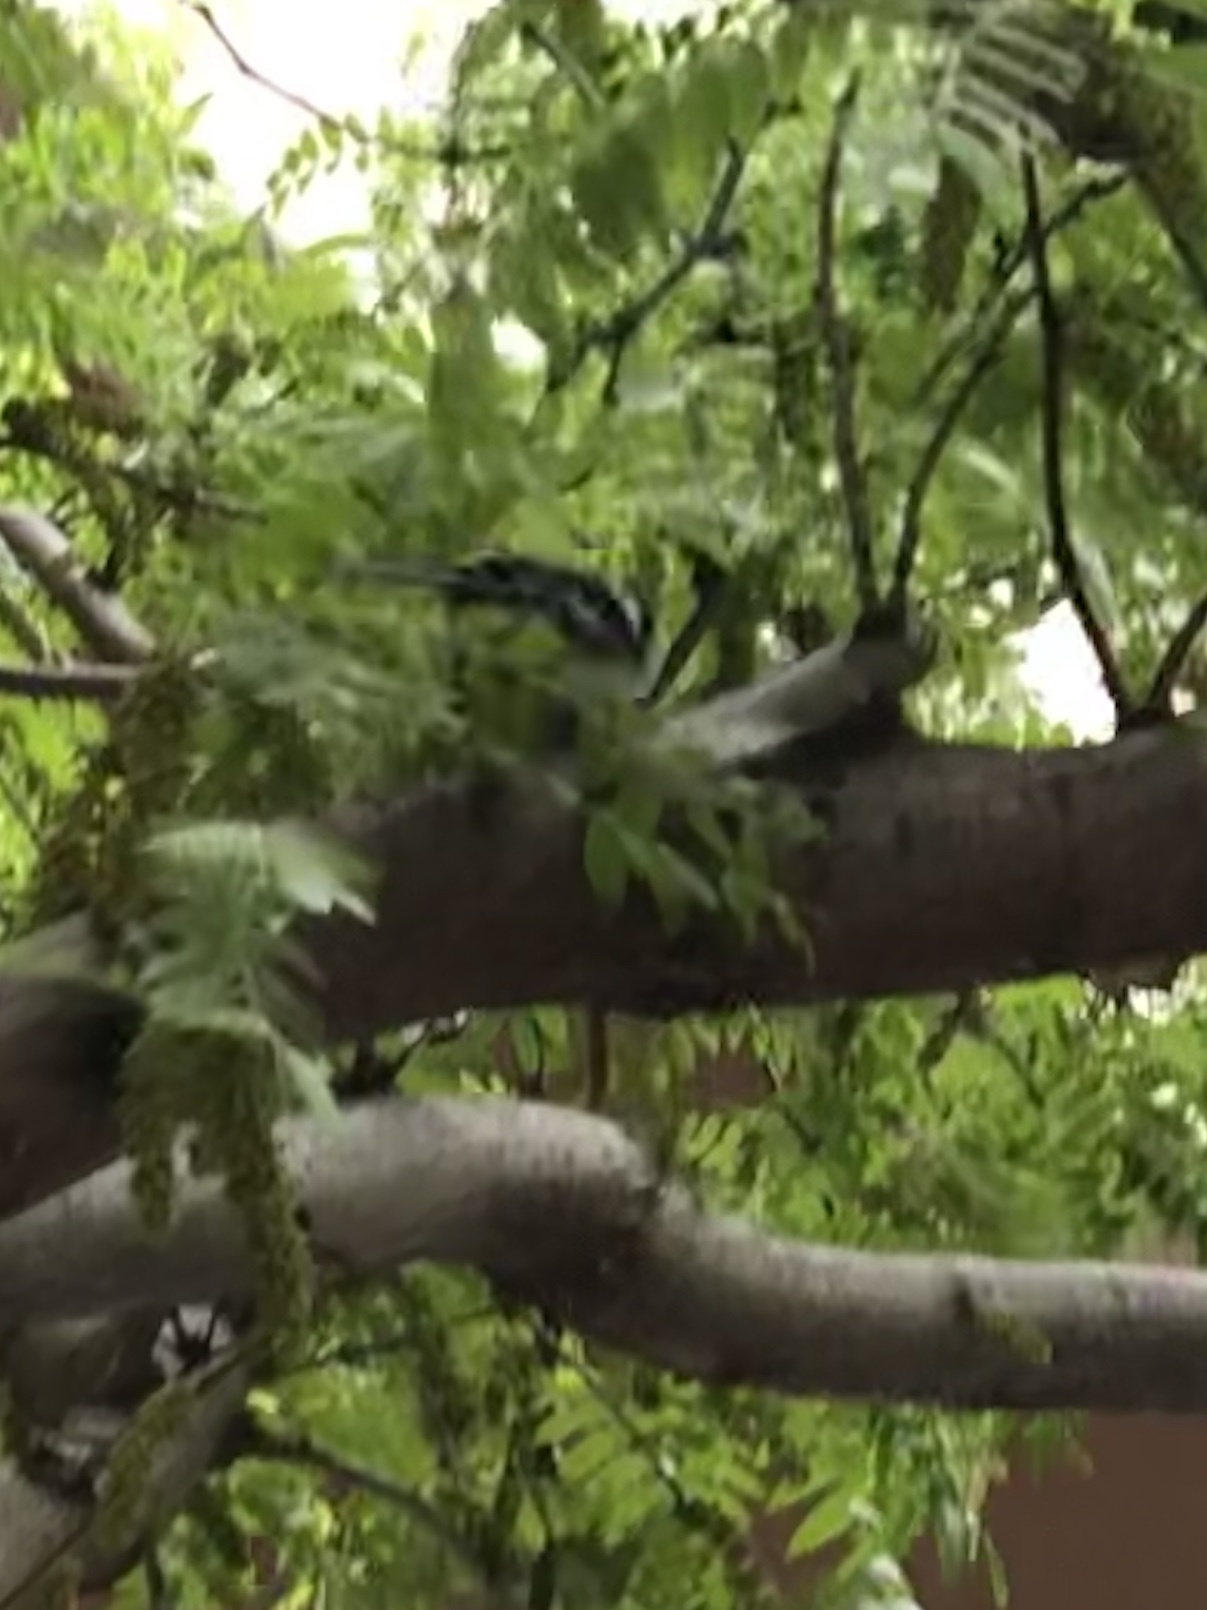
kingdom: Animalia
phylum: Chordata
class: Aves
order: Passeriformes
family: Parulidae
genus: Mniotilta
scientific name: Mniotilta varia
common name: Black-and-white warbler
